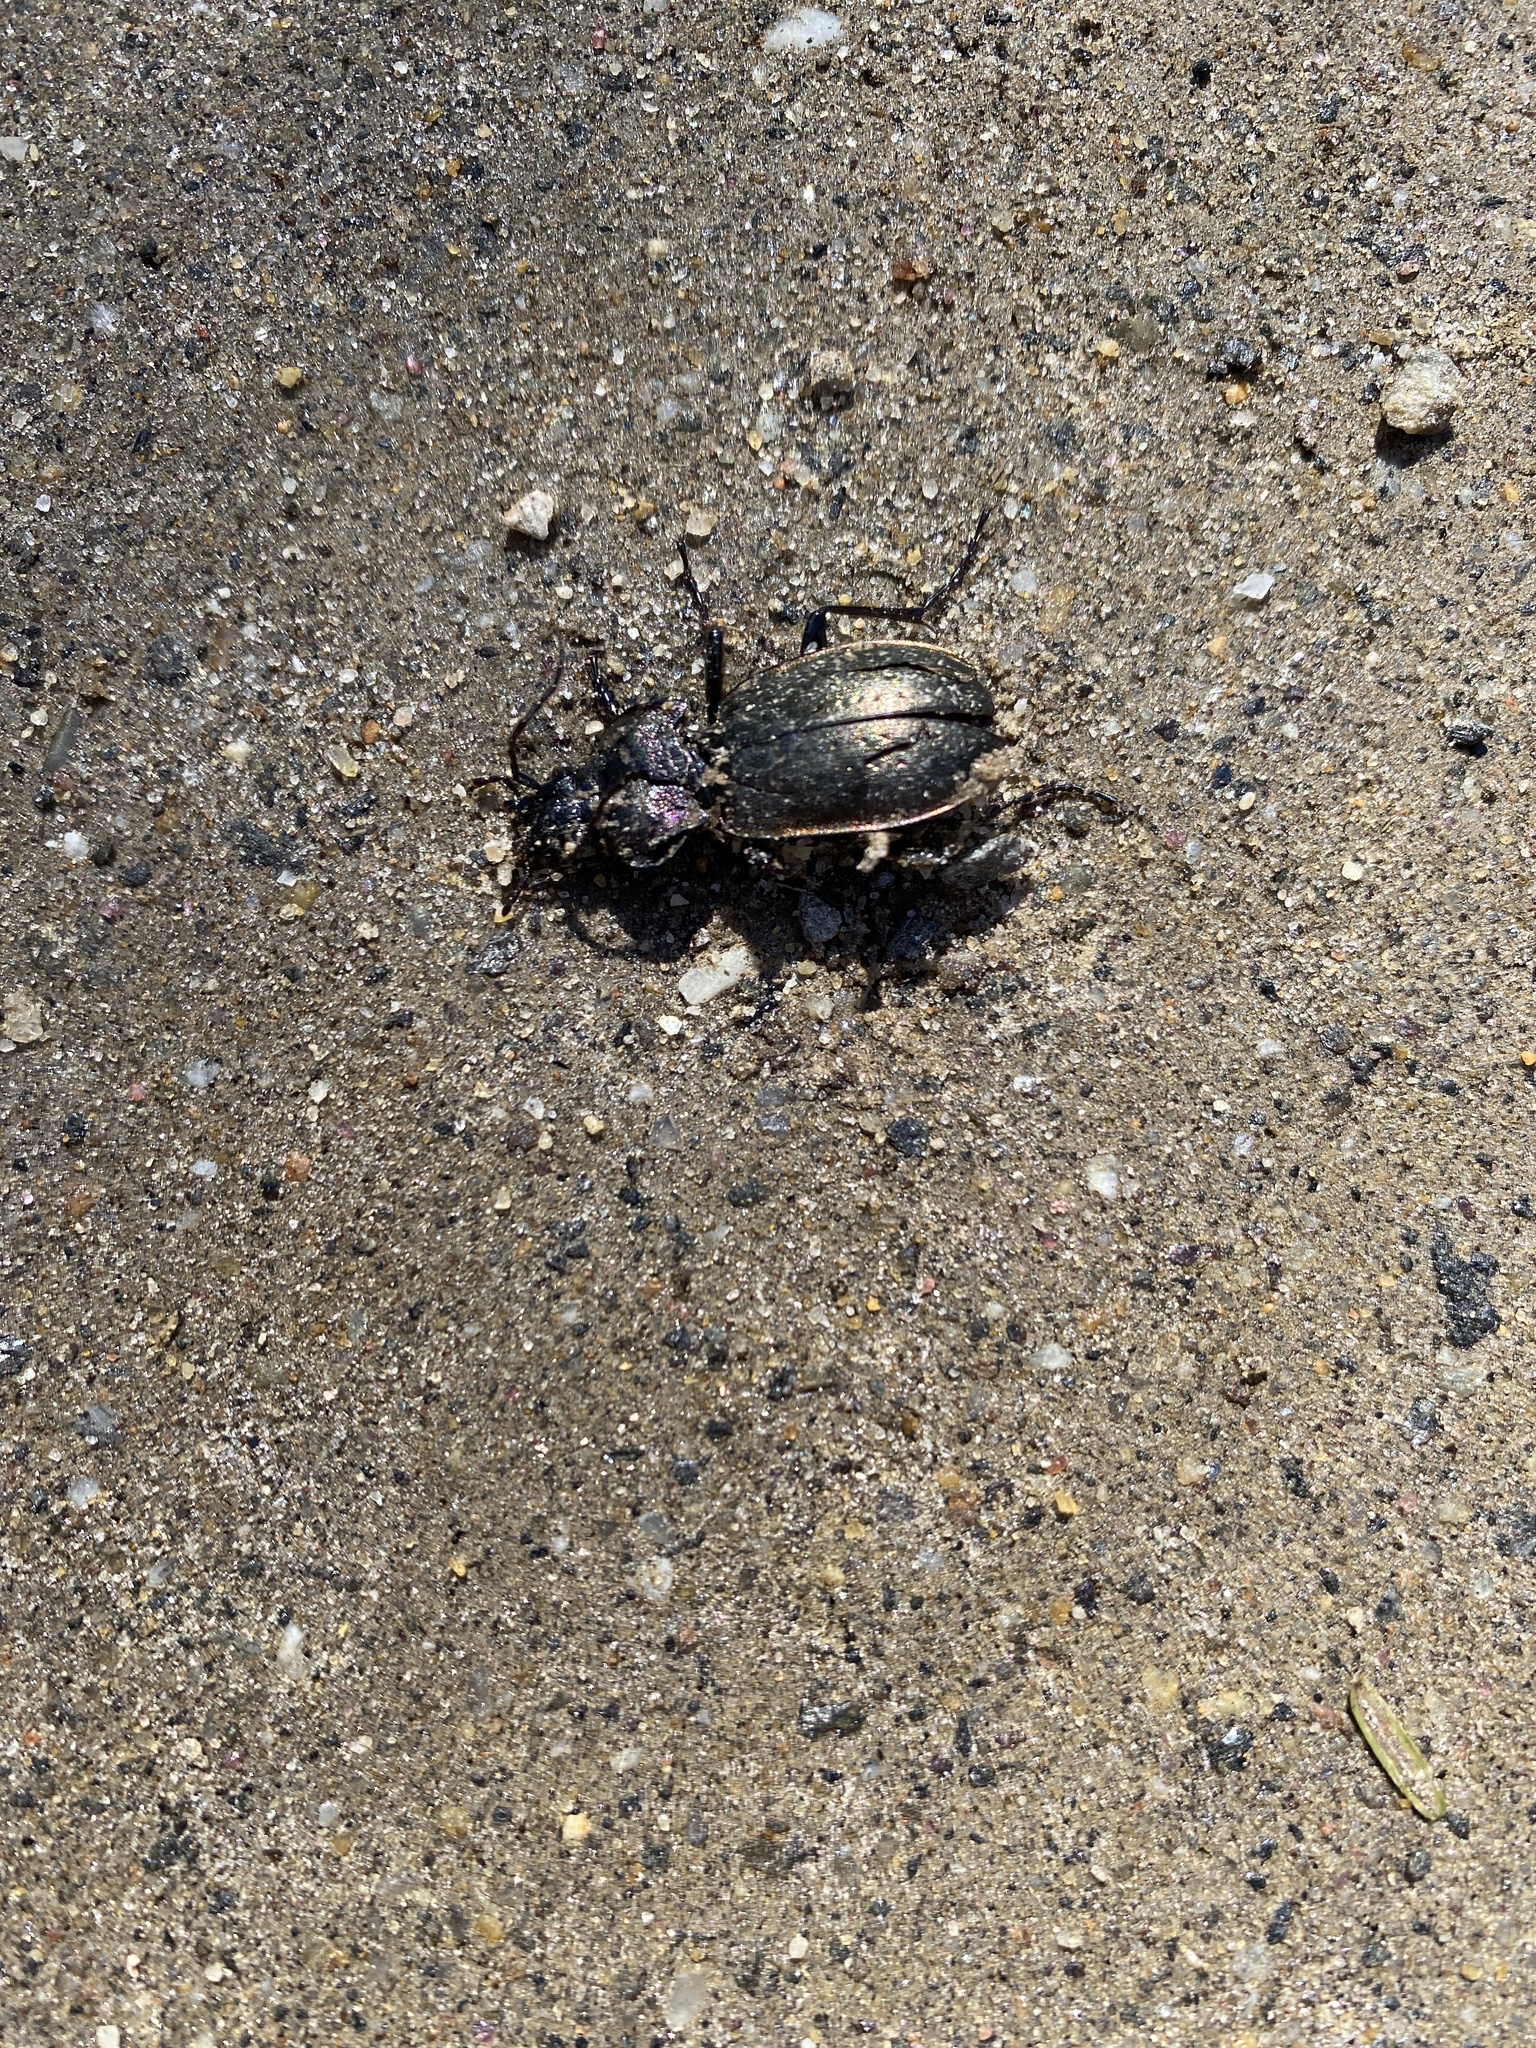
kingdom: Animalia
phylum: Arthropoda
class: Insecta
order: Coleoptera
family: Carabidae
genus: Carabus
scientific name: Carabus nemoralis
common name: European ground beetle
